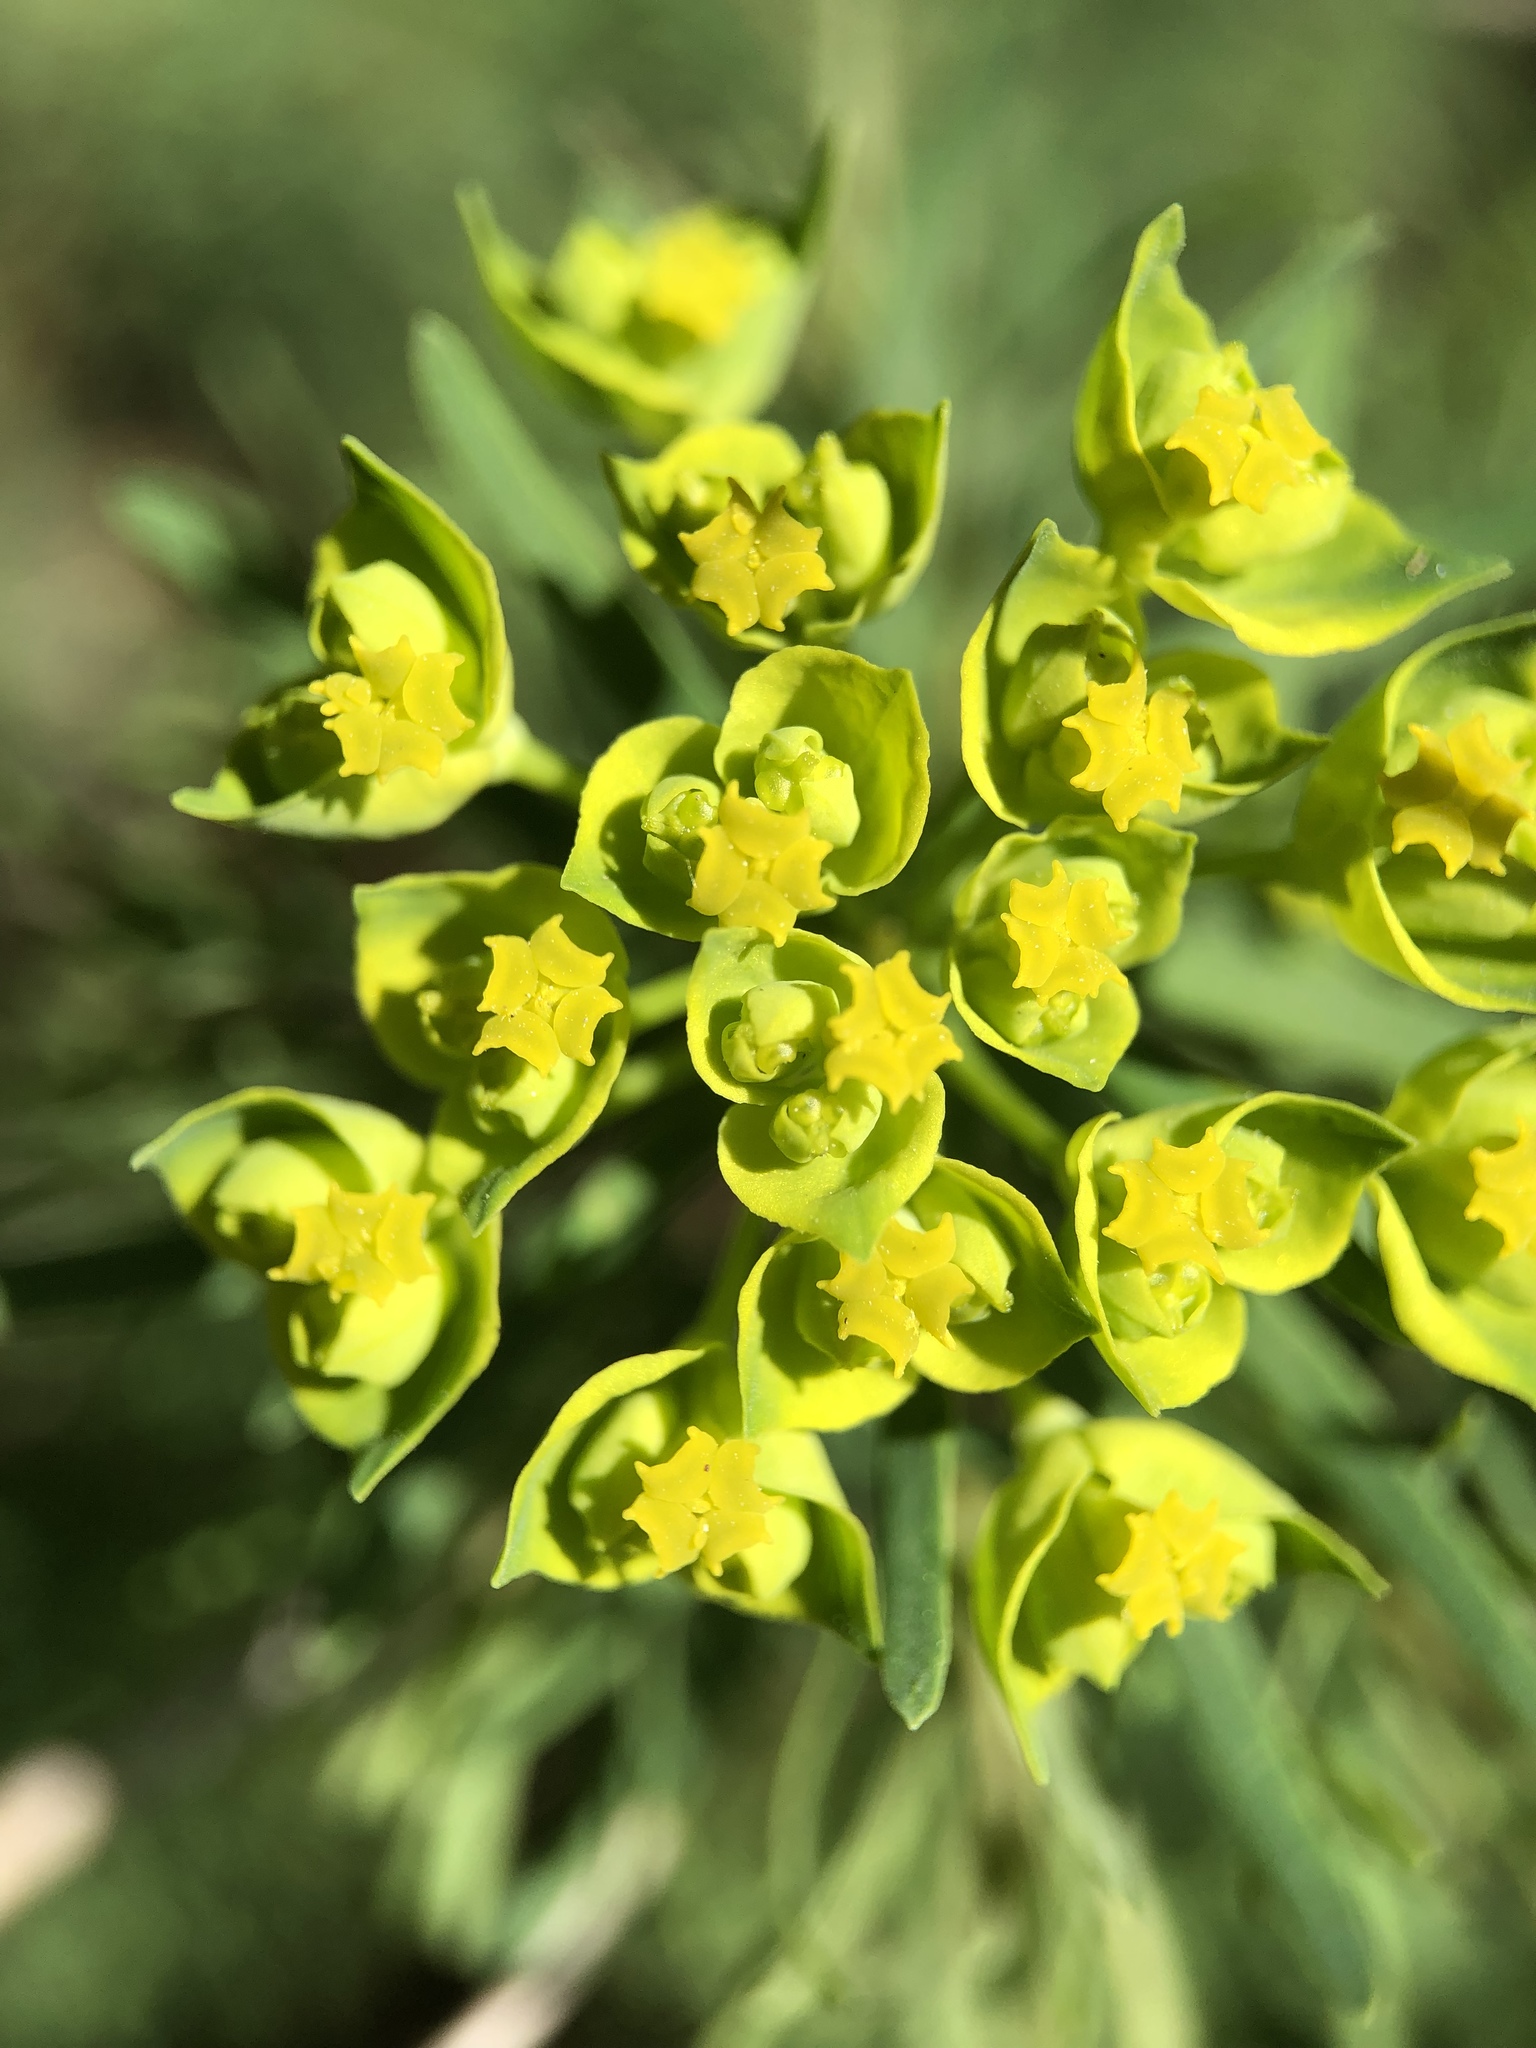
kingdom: Plantae
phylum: Tracheophyta
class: Magnoliopsida
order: Malpighiales
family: Euphorbiaceae
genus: Euphorbia
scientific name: Euphorbia cyparissias
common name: Cypress spurge
